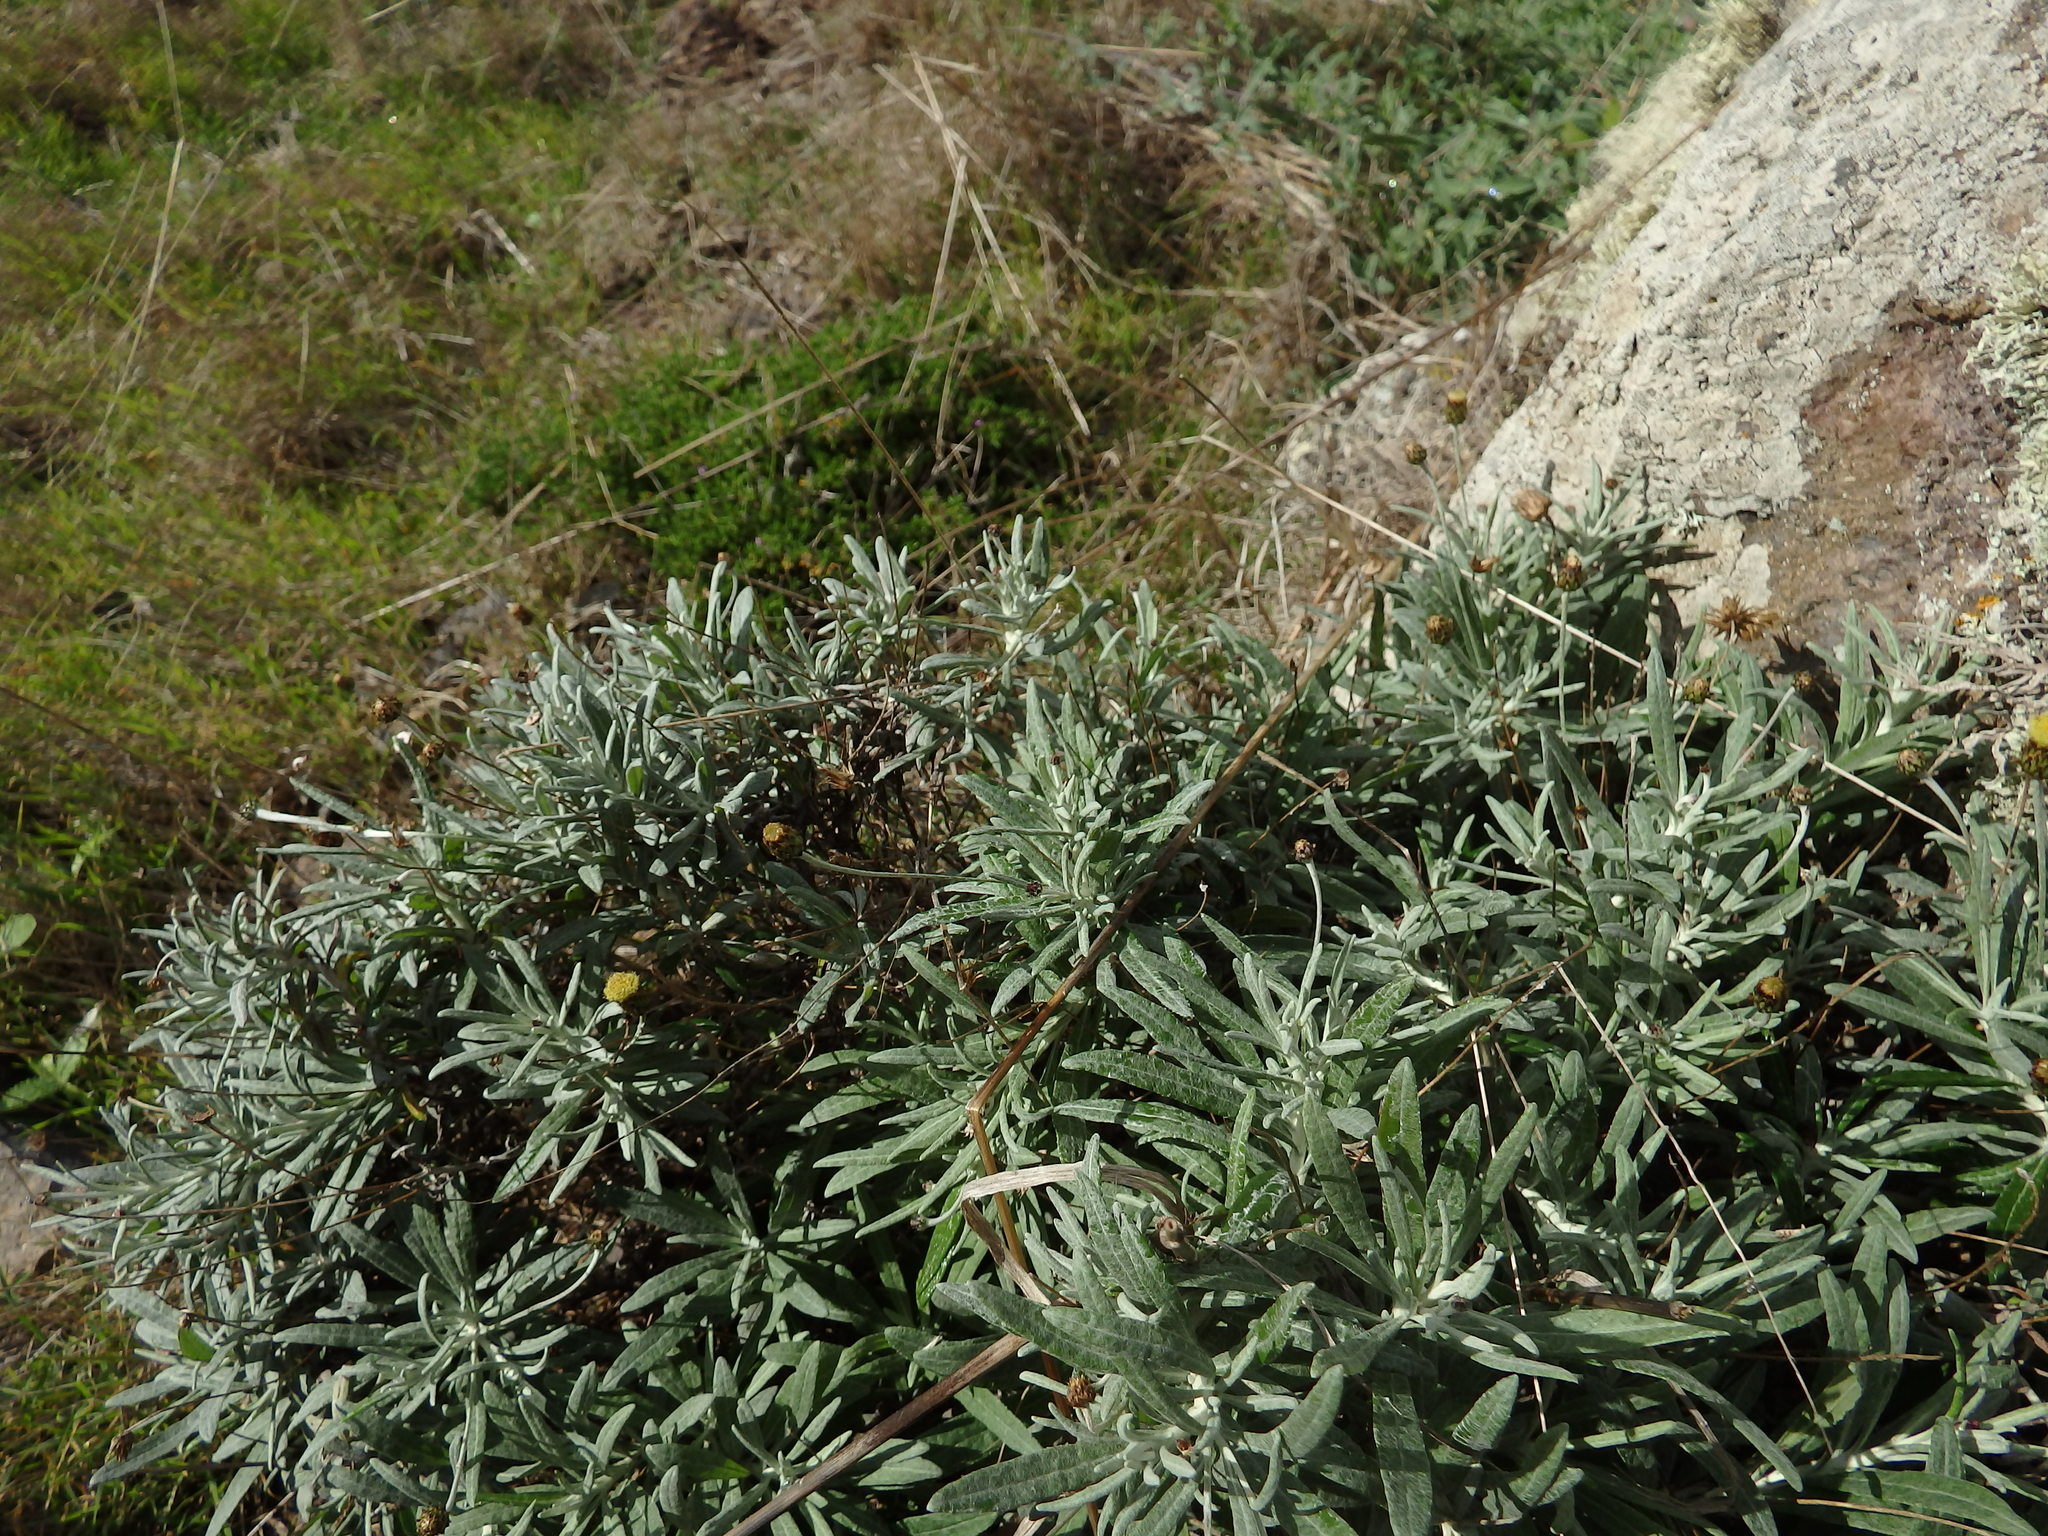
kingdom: Plantae
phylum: Tracheophyta
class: Magnoliopsida
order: Asterales
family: Asteraceae
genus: Phagnalon
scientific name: Phagnalon saxatile
